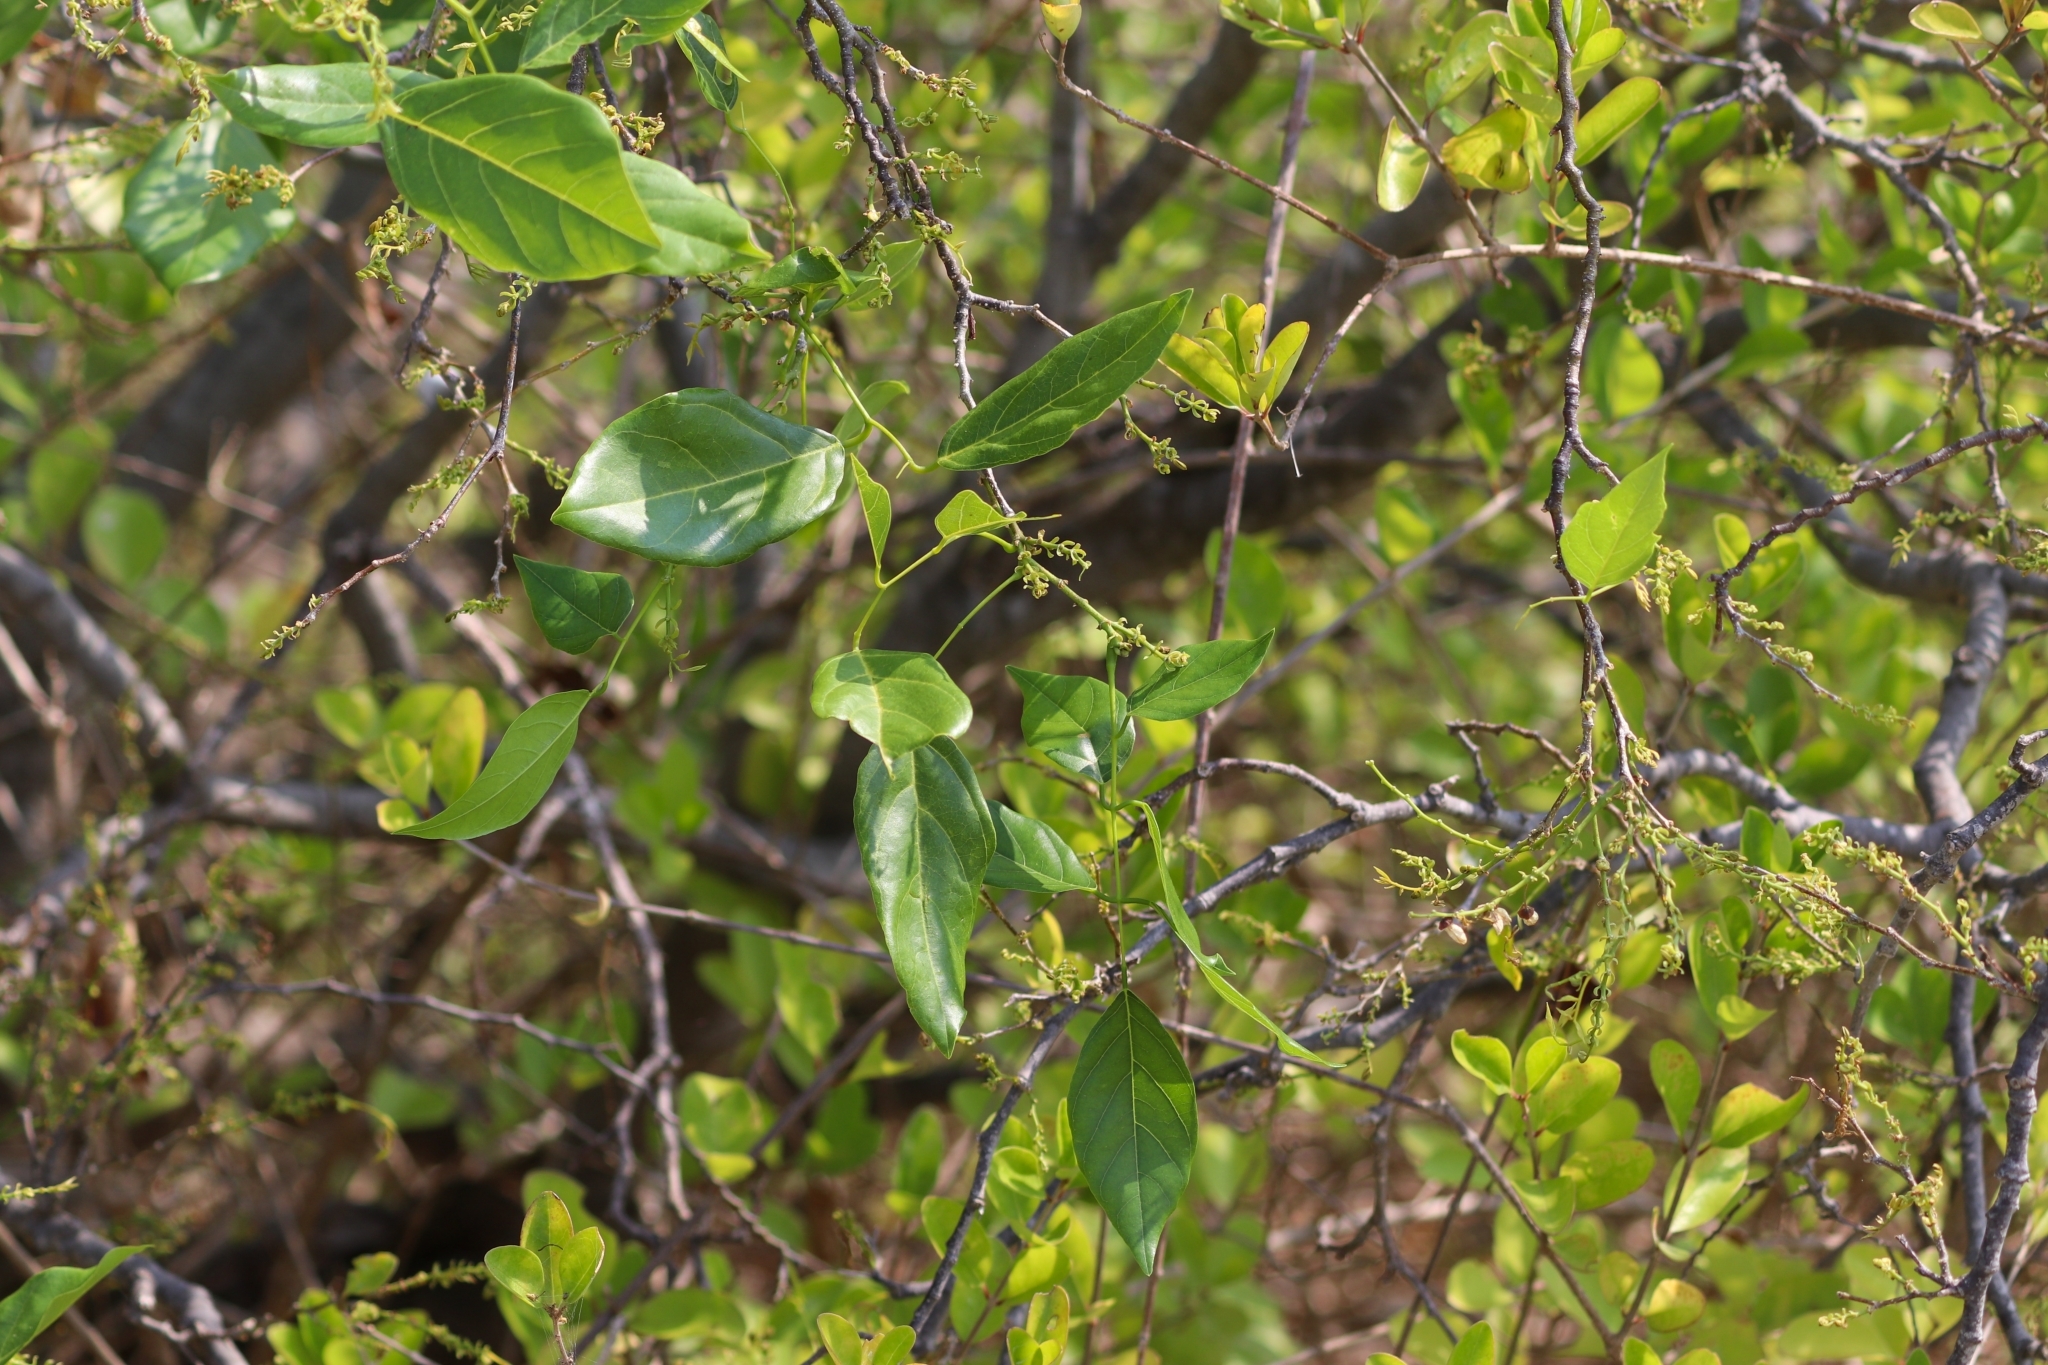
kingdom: Plantae
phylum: Tracheophyta
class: Magnoliopsida
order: Fabales
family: Fabaceae
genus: Pongamia
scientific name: Pongamia pinnata
